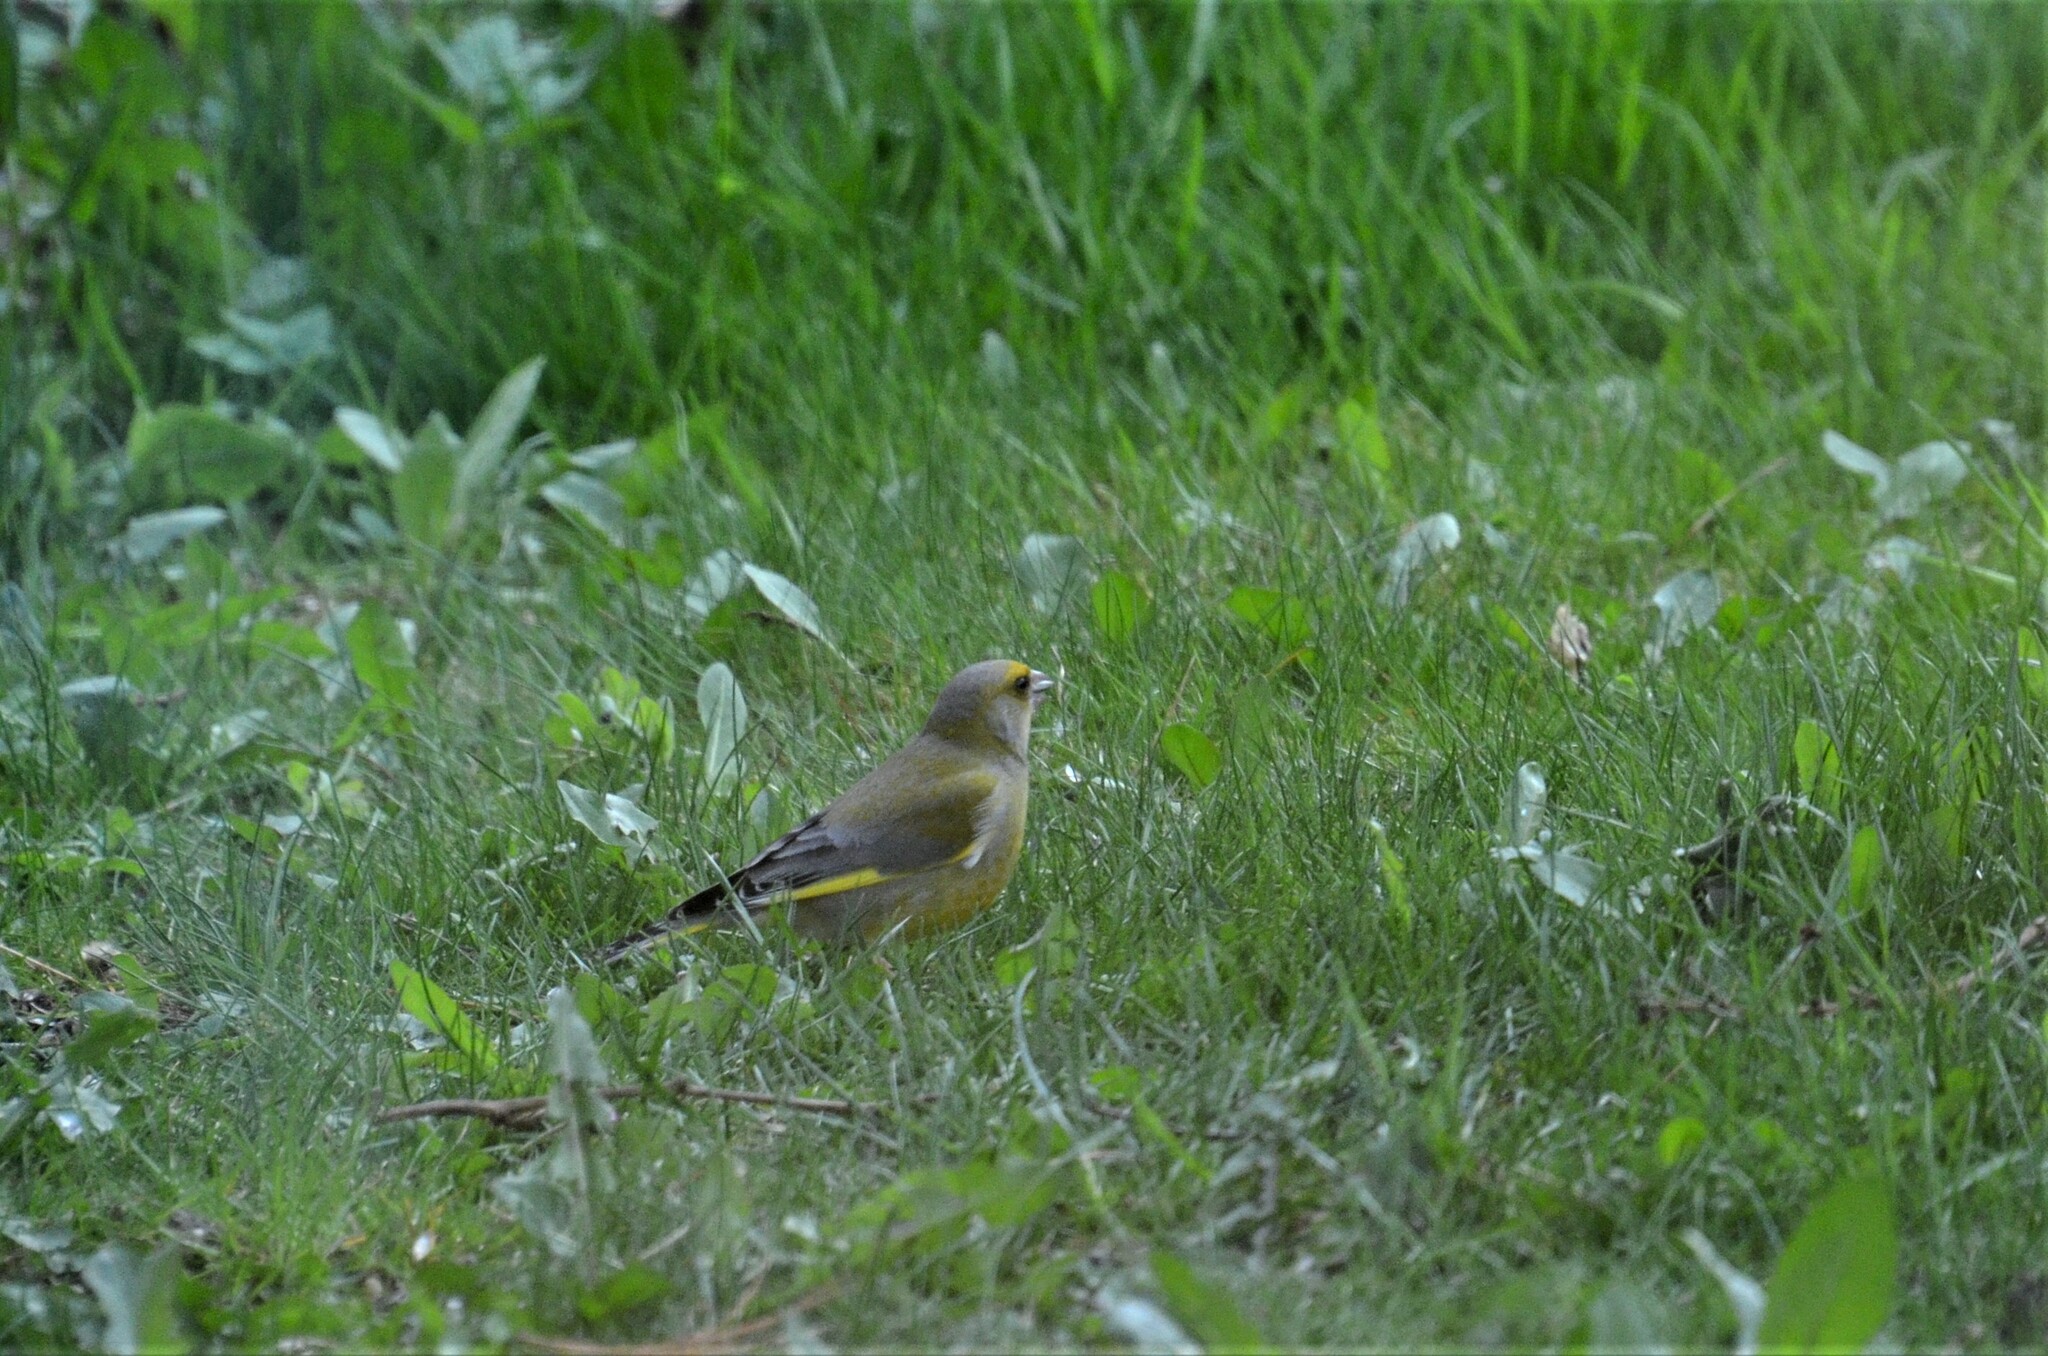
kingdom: Plantae
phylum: Tracheophyta
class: Liliopsida
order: Poales
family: Poaceae
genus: Chloris
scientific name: Chloris chloris
